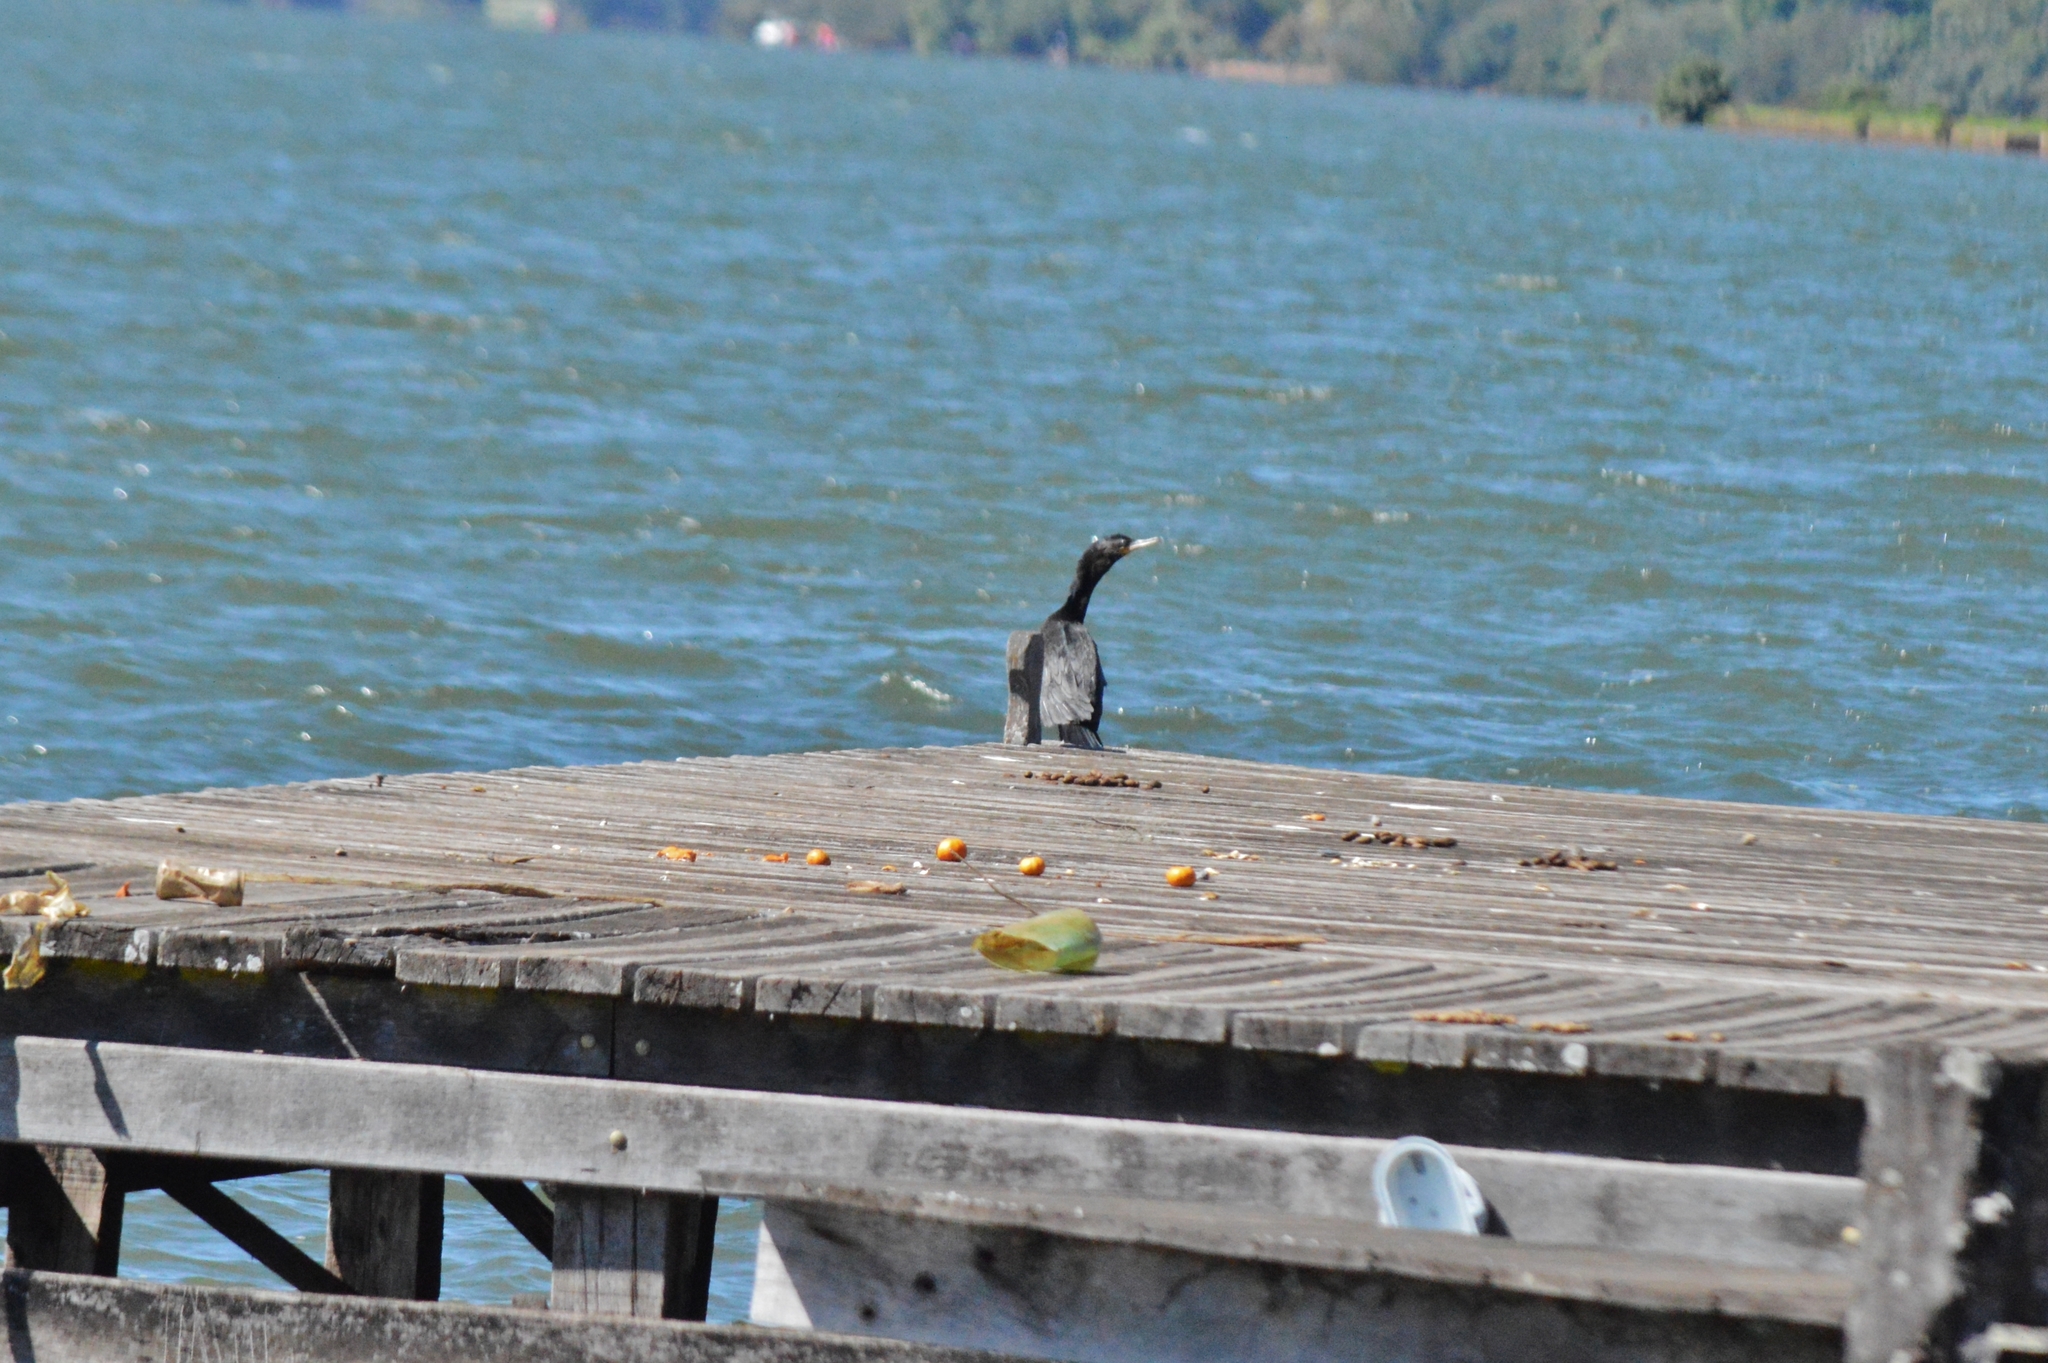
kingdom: Animalia
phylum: Chordata
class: Aves
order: Suliformes
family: Phalacrocoracidae
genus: Phalacrocorax
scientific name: Phalacrocorax brasilianus
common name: Neotropic cormorant
